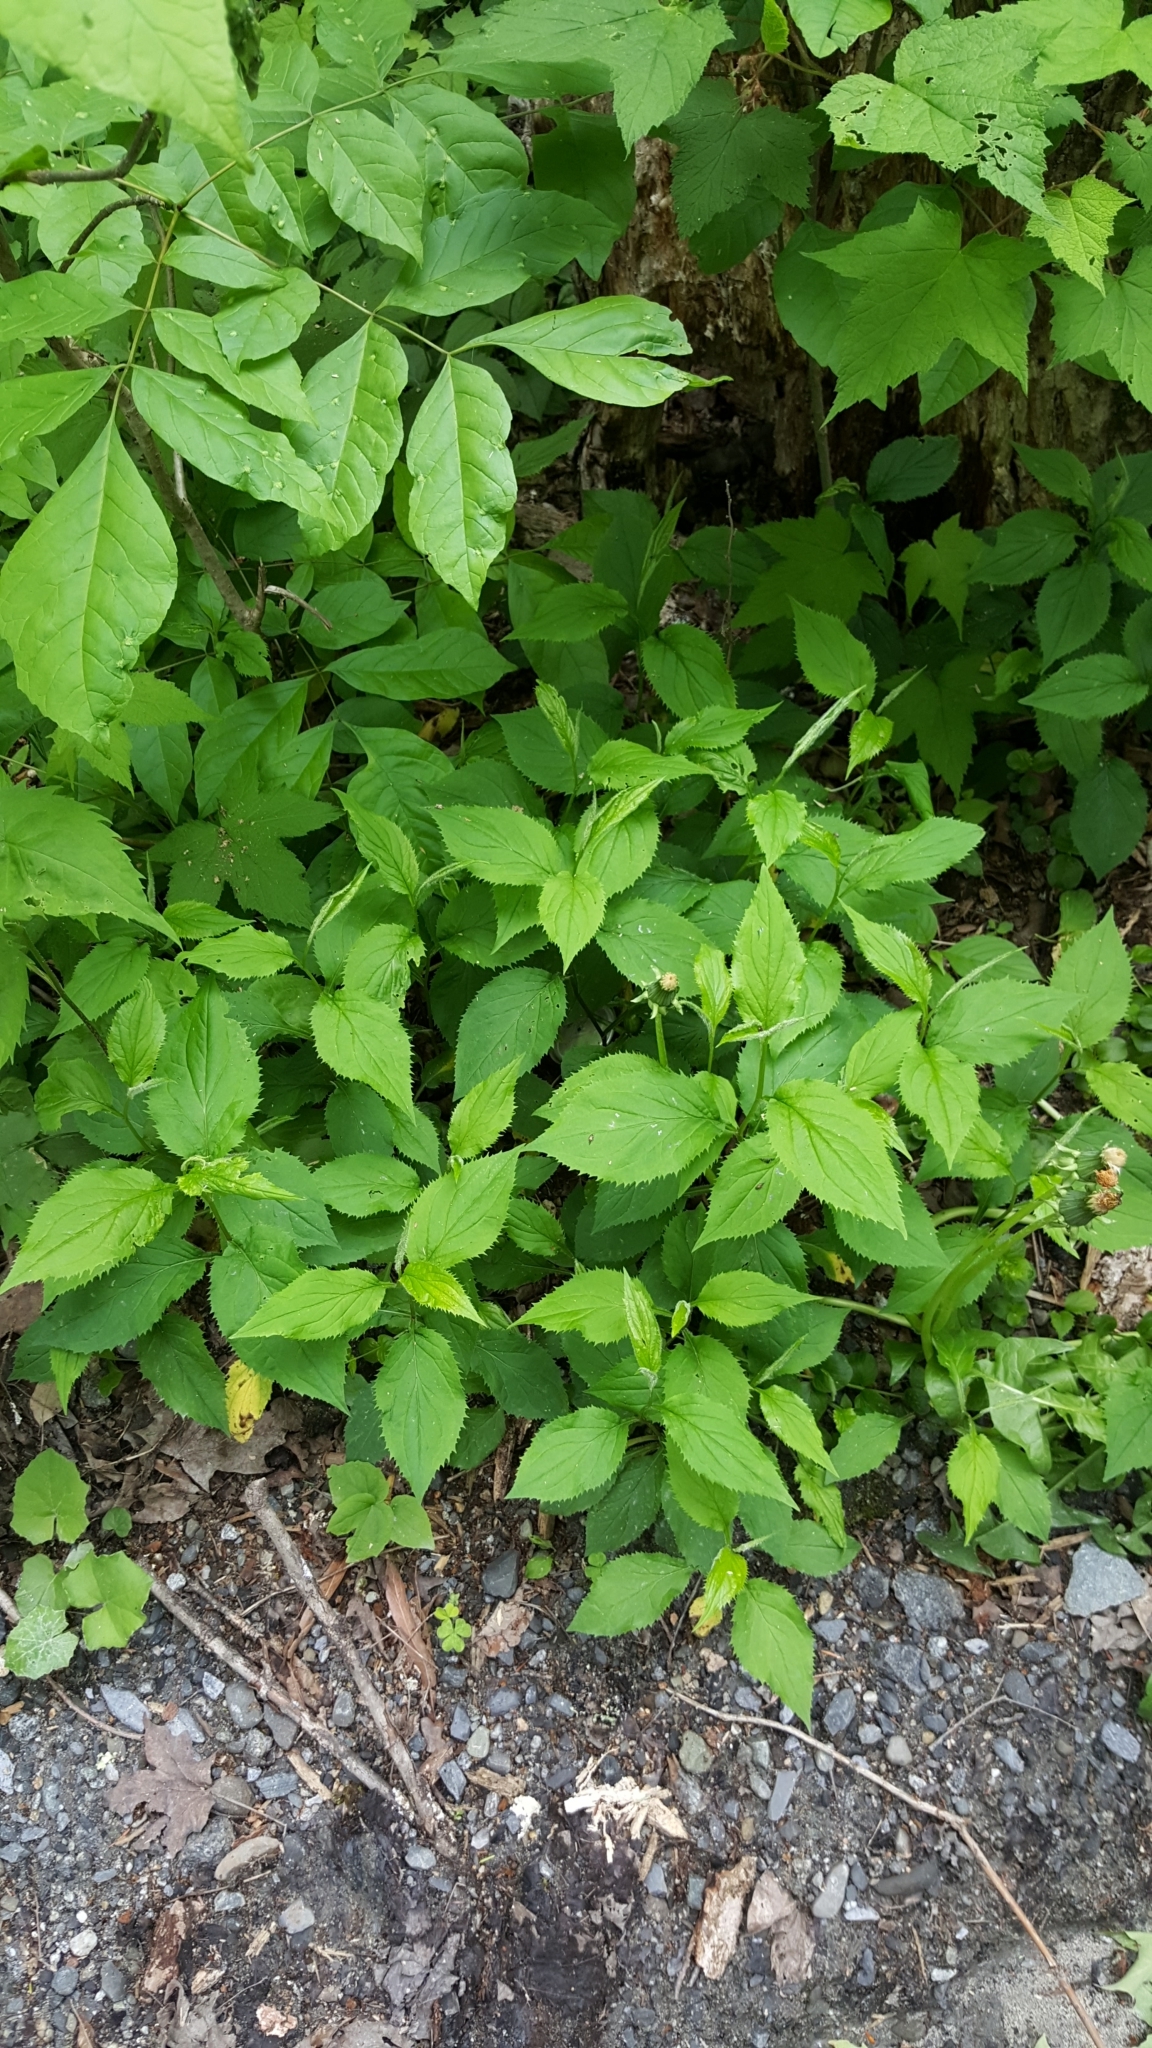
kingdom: Plantae
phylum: Tracheophyta
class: Magnoliopsida
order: Asterales
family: Asteraceae
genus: Solidago
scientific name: Solidago flexicaulis
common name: Zig-zag goldenrod
